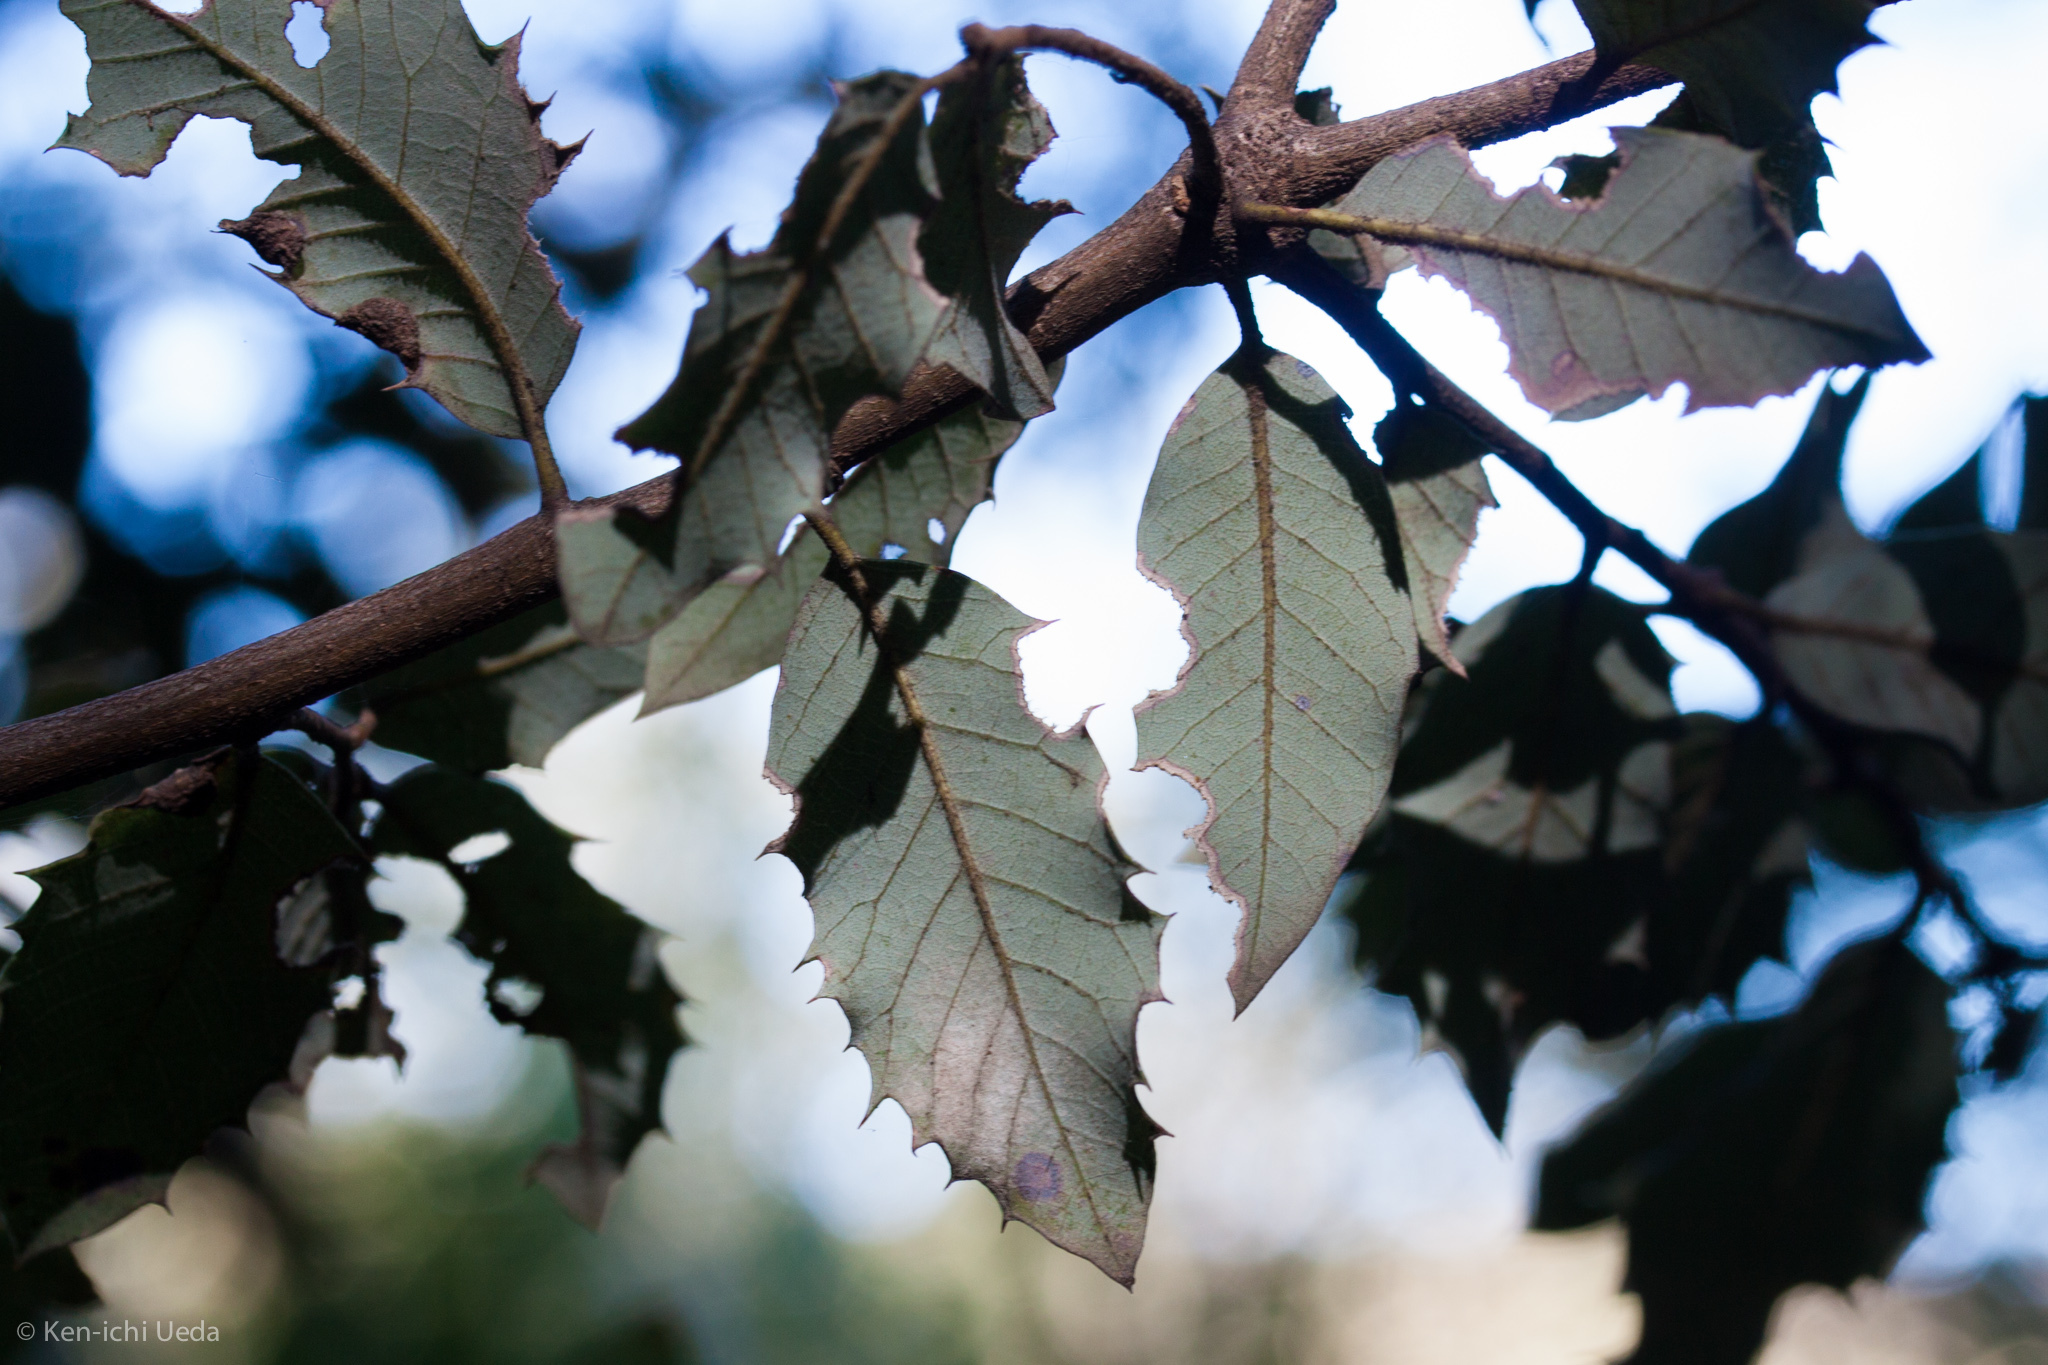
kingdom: Plantae
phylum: Tracheophyta
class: Magnoliopsida
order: Fagales
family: Fagaceae
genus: Quercus
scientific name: Quercus chrysolepis
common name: Canyon live oak
